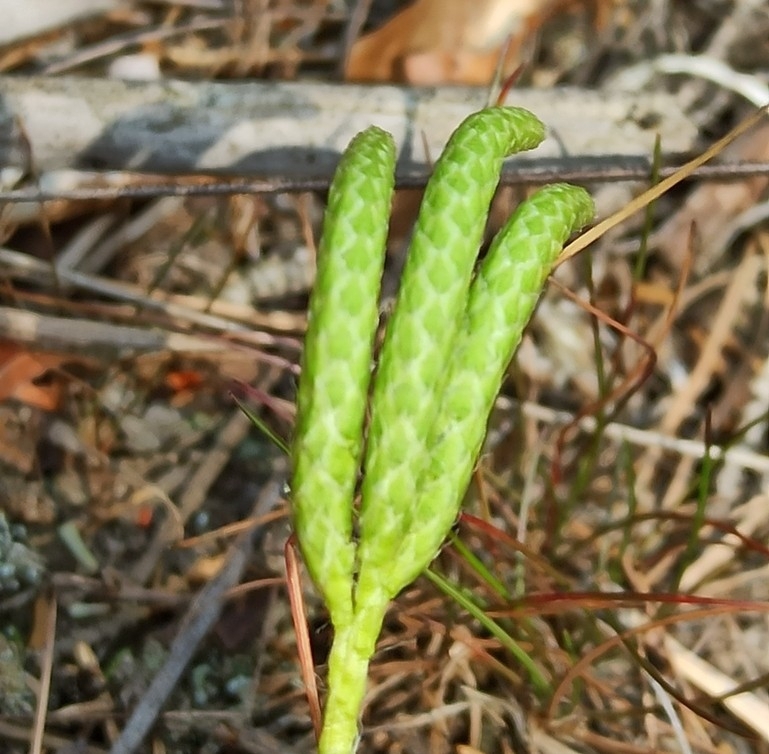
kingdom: Plantae
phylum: Tracheophyta
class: Lycopodiopsida
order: Lycopodiales
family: Lycopodiaceae
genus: Lycopodium
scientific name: Lycopodium clavatum
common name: Stag's-horn clubmoss
